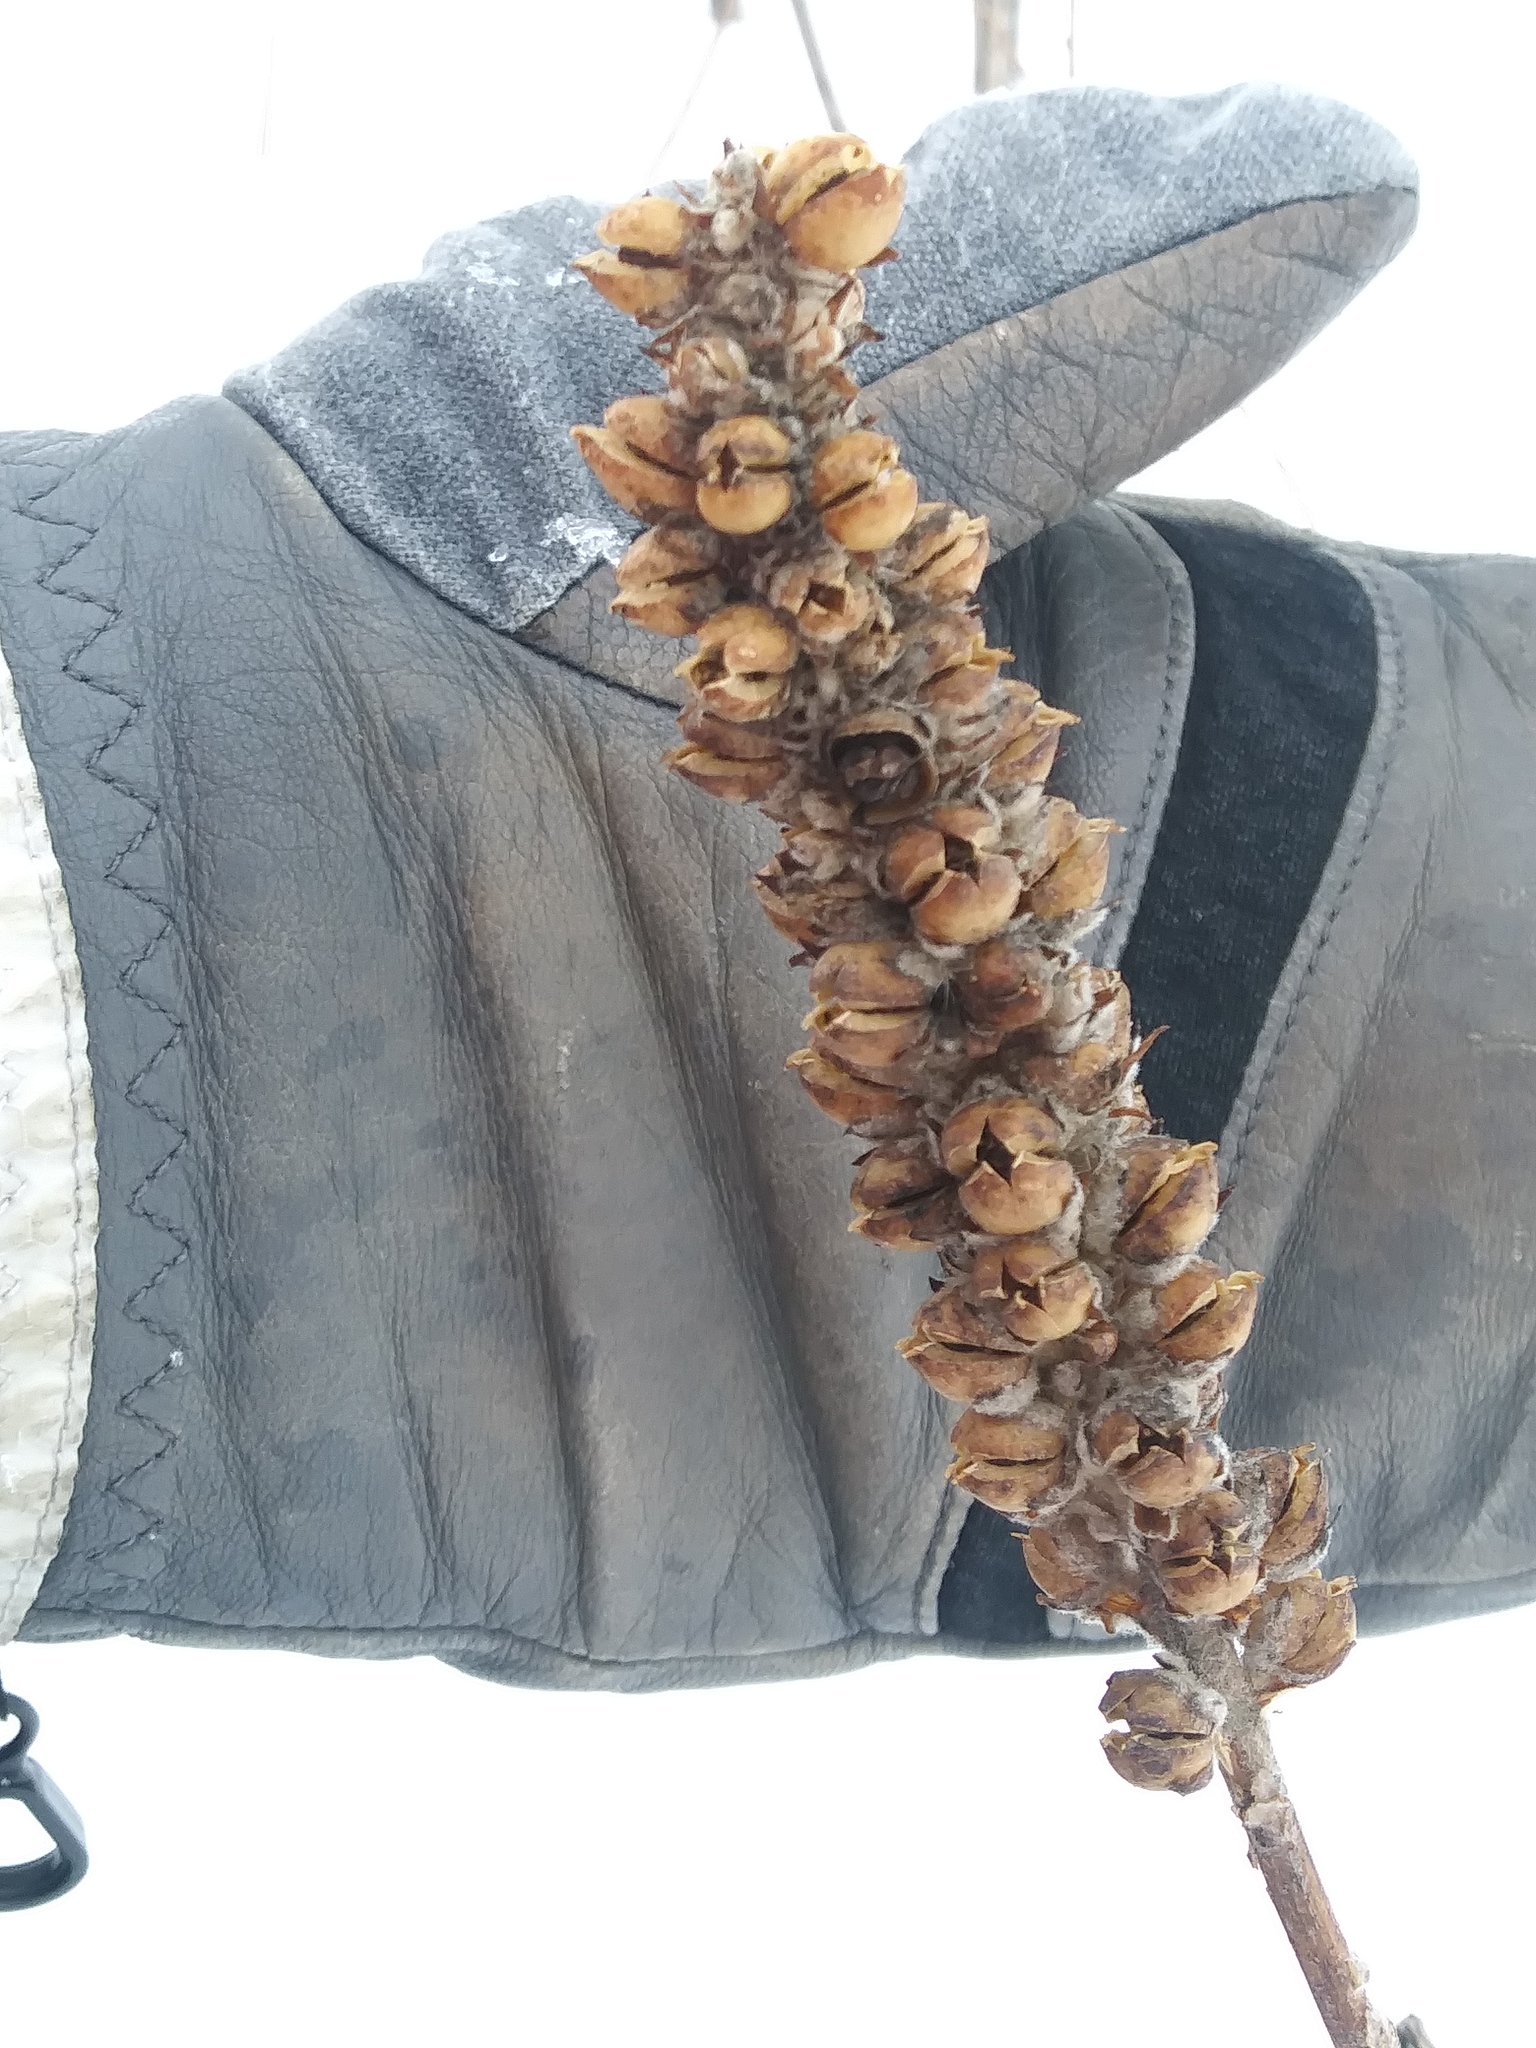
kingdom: Plantae
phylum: Tracheophyta
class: Magnoliopsida
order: Lamiales
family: Scrophulariaceae
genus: Verbascum
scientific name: Verbascum thapsus
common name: Common mullein
